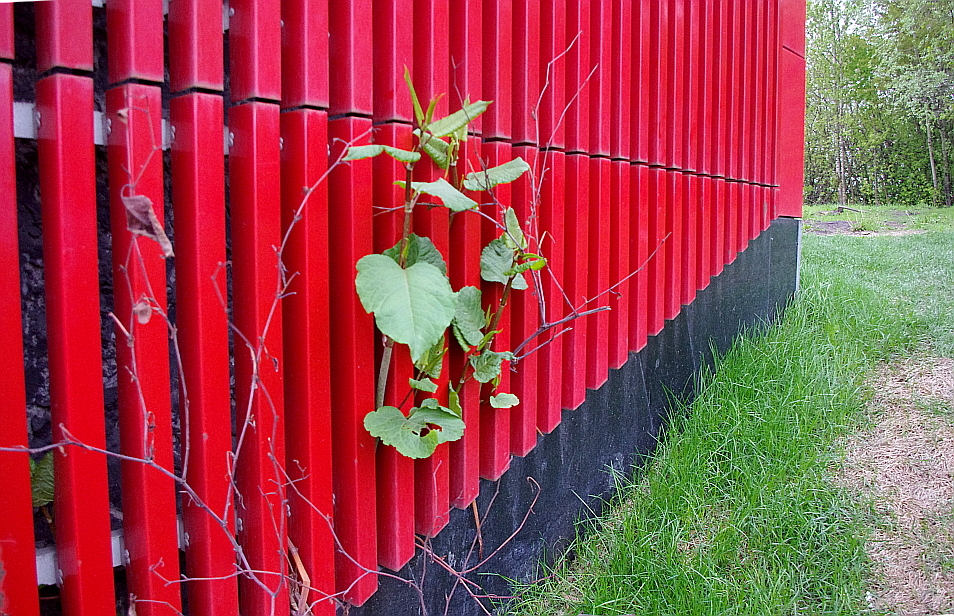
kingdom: Plantae
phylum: Tracheophyta
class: Magnoliopsida
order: Caryophyllales
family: Polygonaceae
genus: Reynoutria
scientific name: Reynoutria bohemica
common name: Bohemian knotweed
